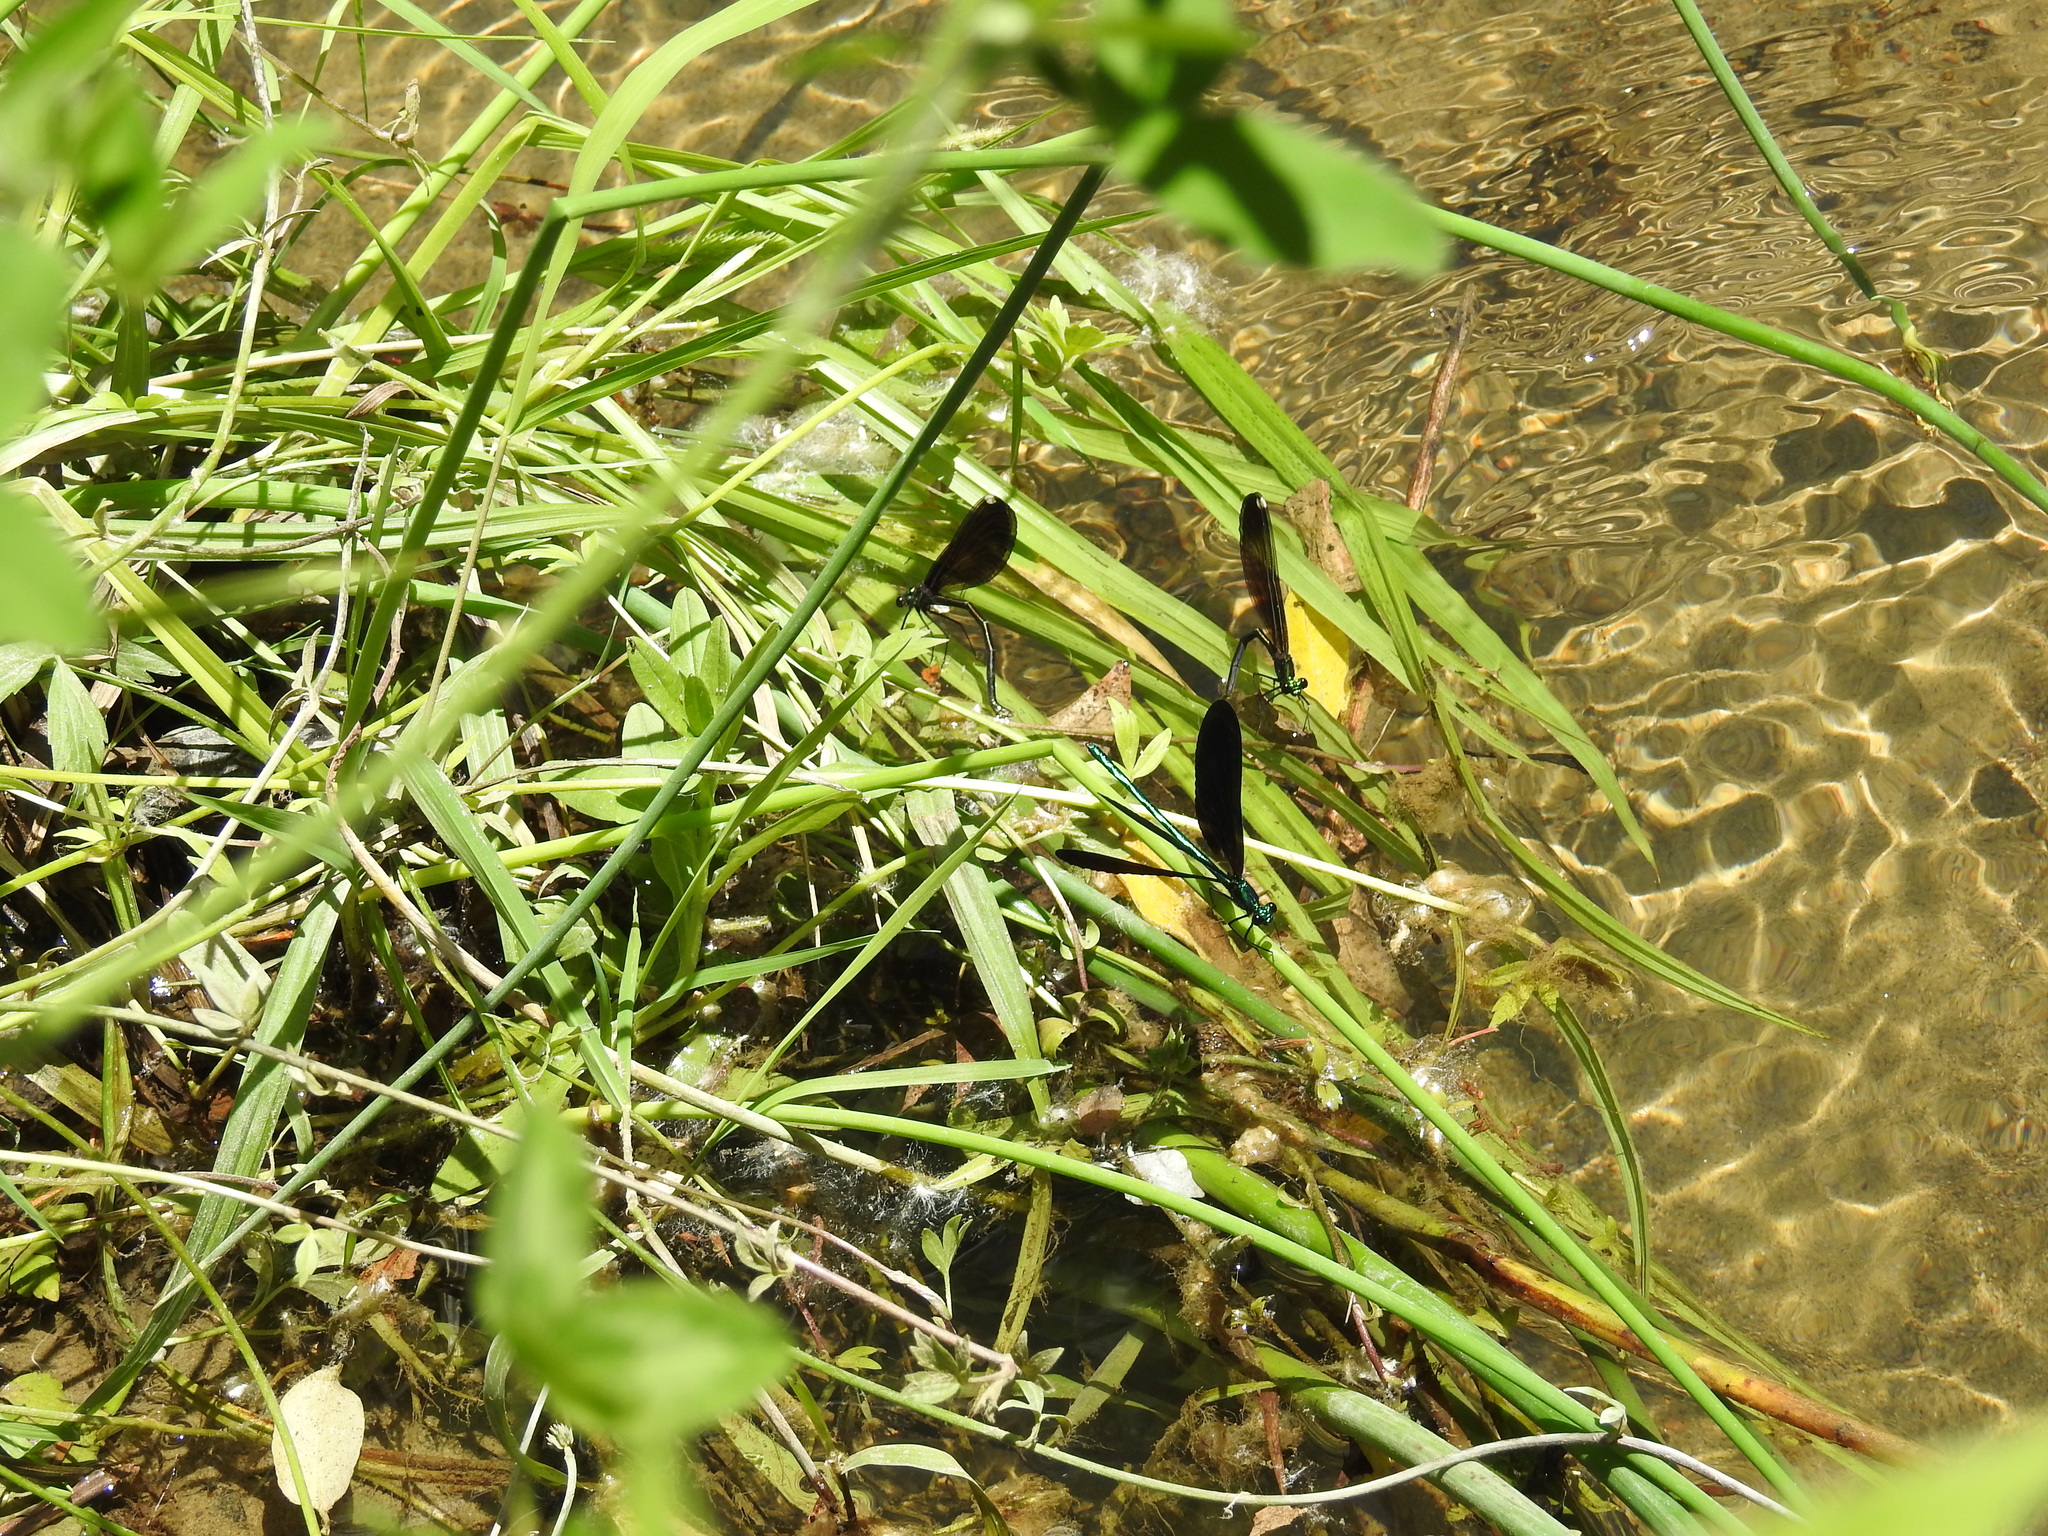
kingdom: Animalia
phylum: Arthropoda
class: Insecta
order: Odonata
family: Calopterygidae
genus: Calopteryx
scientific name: Calopteryx maculata
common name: Ebony jewelwing
